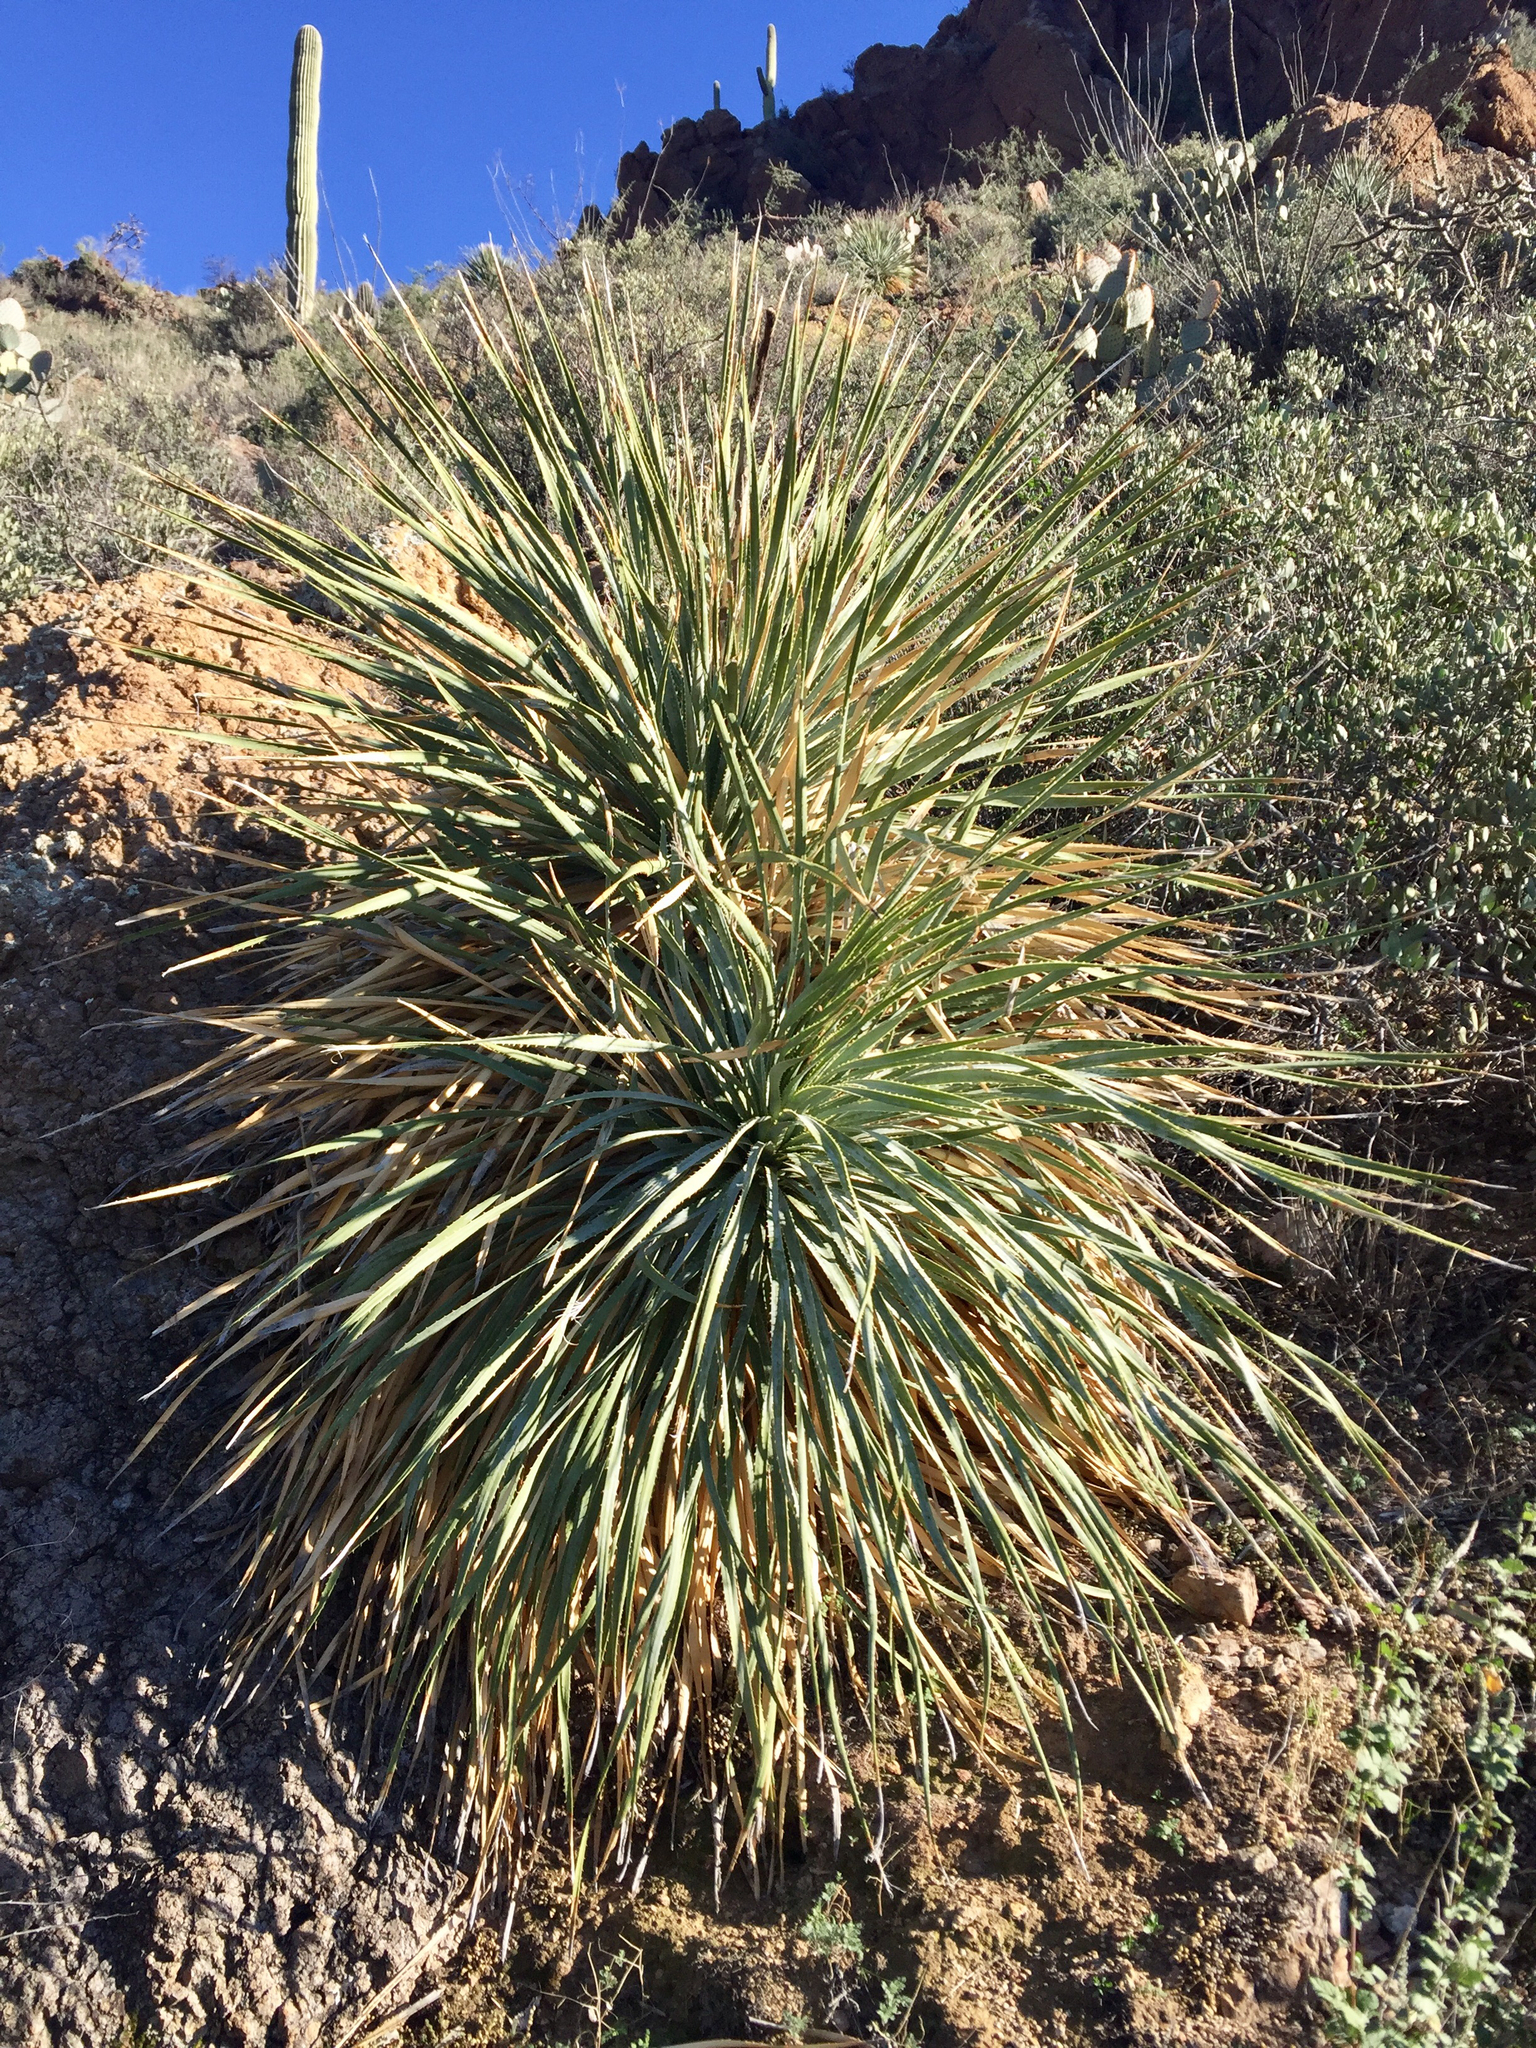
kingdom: Plantae
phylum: Tracheophyta
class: Liliopsida
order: Asparagales
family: Asparagaceae
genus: Dasylirion
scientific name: Dasylirion wheeleri
